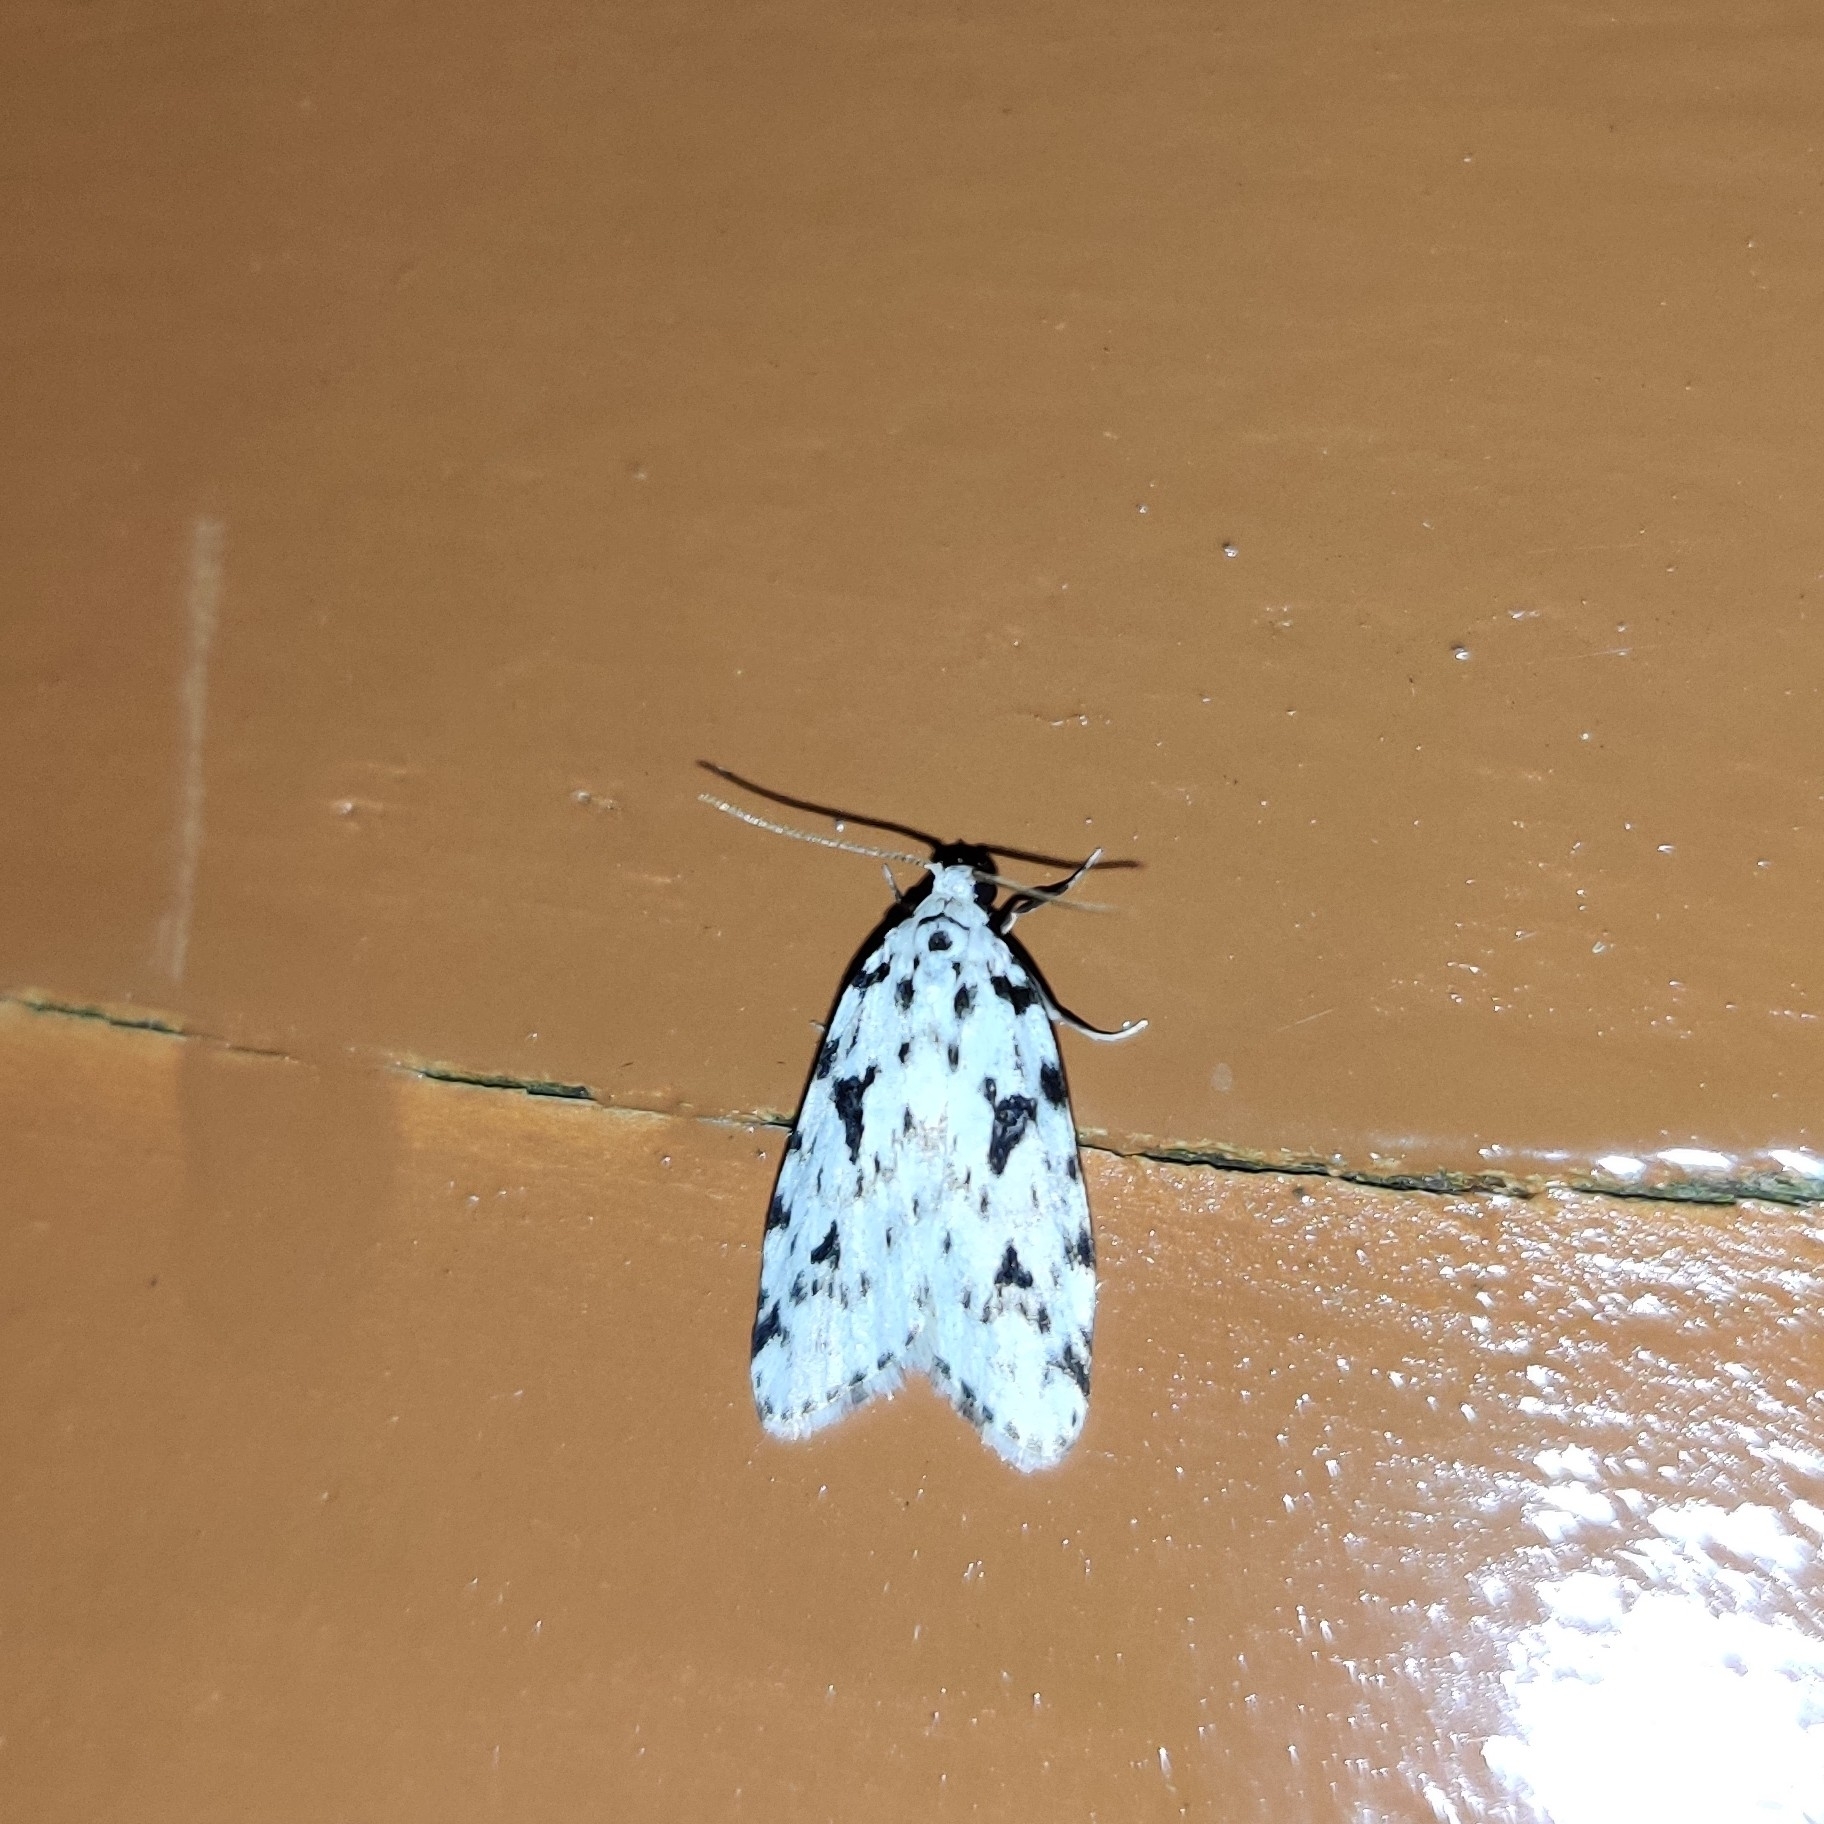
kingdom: Animalia
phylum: Arthropoda
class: Insecta
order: Lepidoptera
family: Erebidae
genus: Siccia
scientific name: Siccia sagittifera
